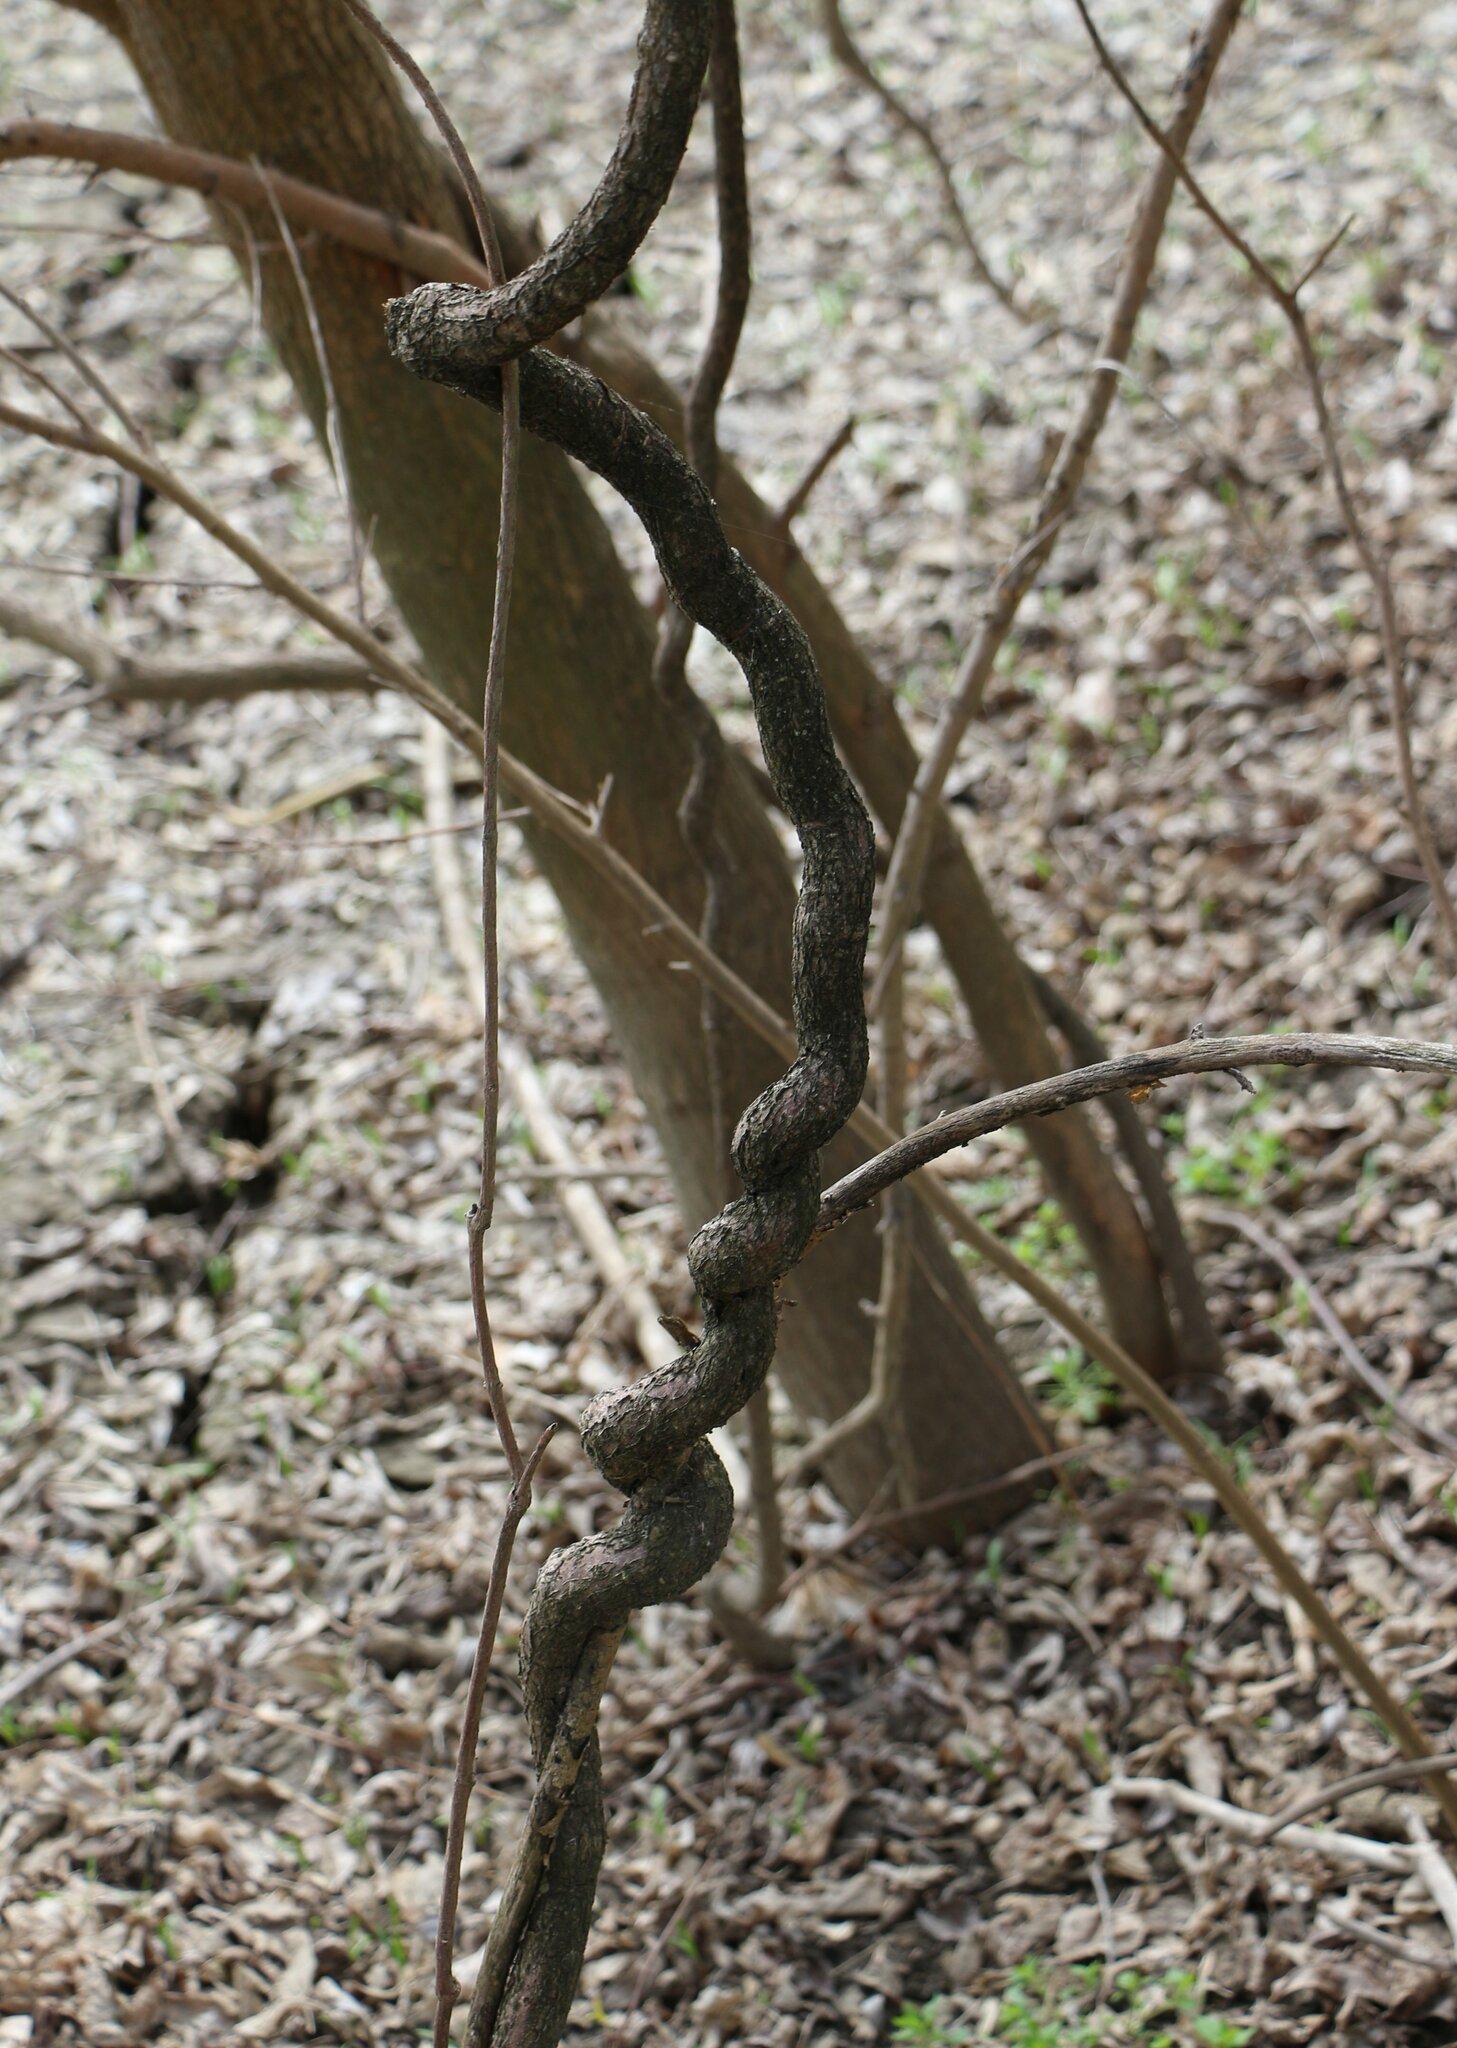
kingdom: Plantae
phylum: Tracheophyta
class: Magnoliopsida
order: Gentianales
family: Apocynaceae
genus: Periploca
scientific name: Periploca graeca
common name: Silkvine
